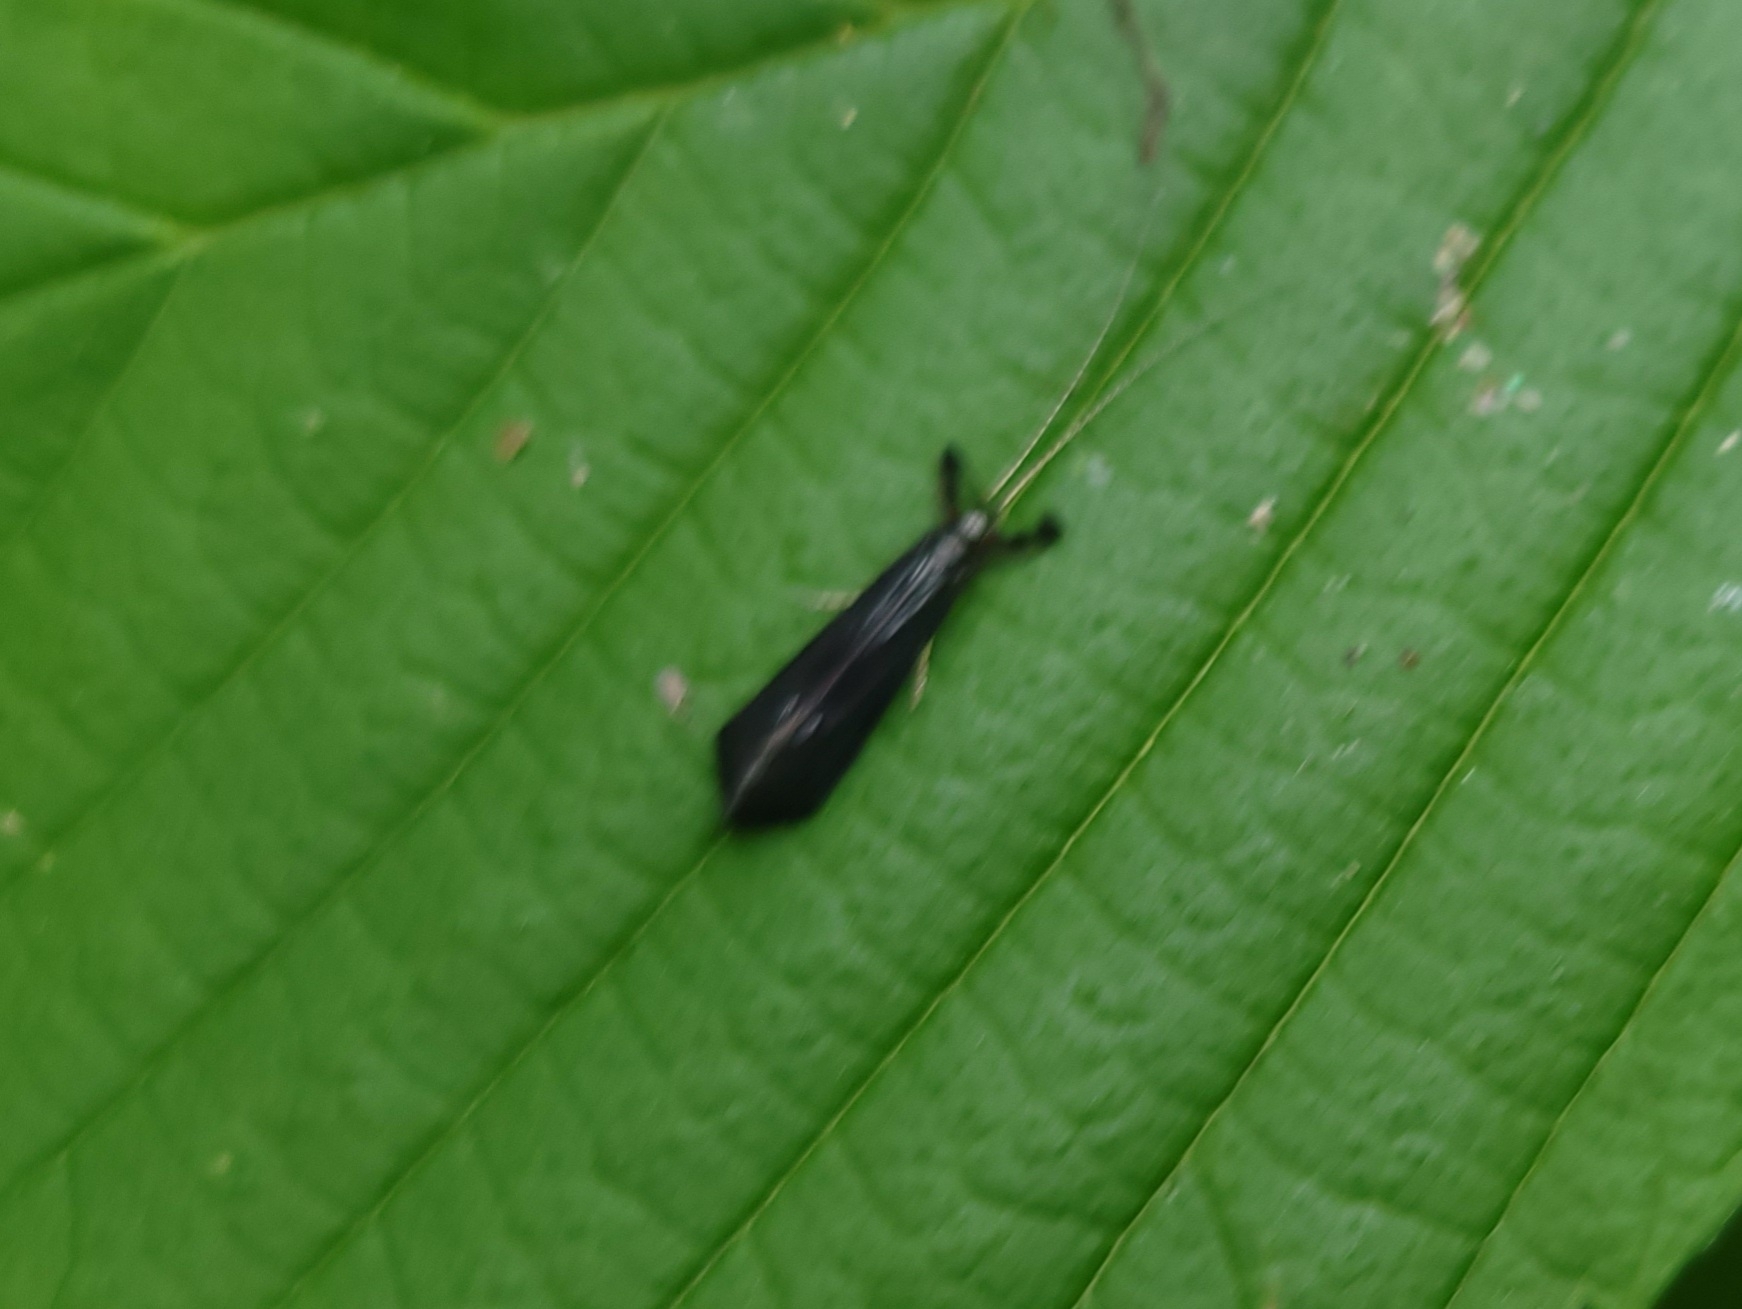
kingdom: Animalia
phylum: Arthropoda
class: Insecta
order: Trichoptera
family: Leptoceridae
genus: Mystacides
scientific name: Mystacides sepulchralis
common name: Black dancer caddisfly
